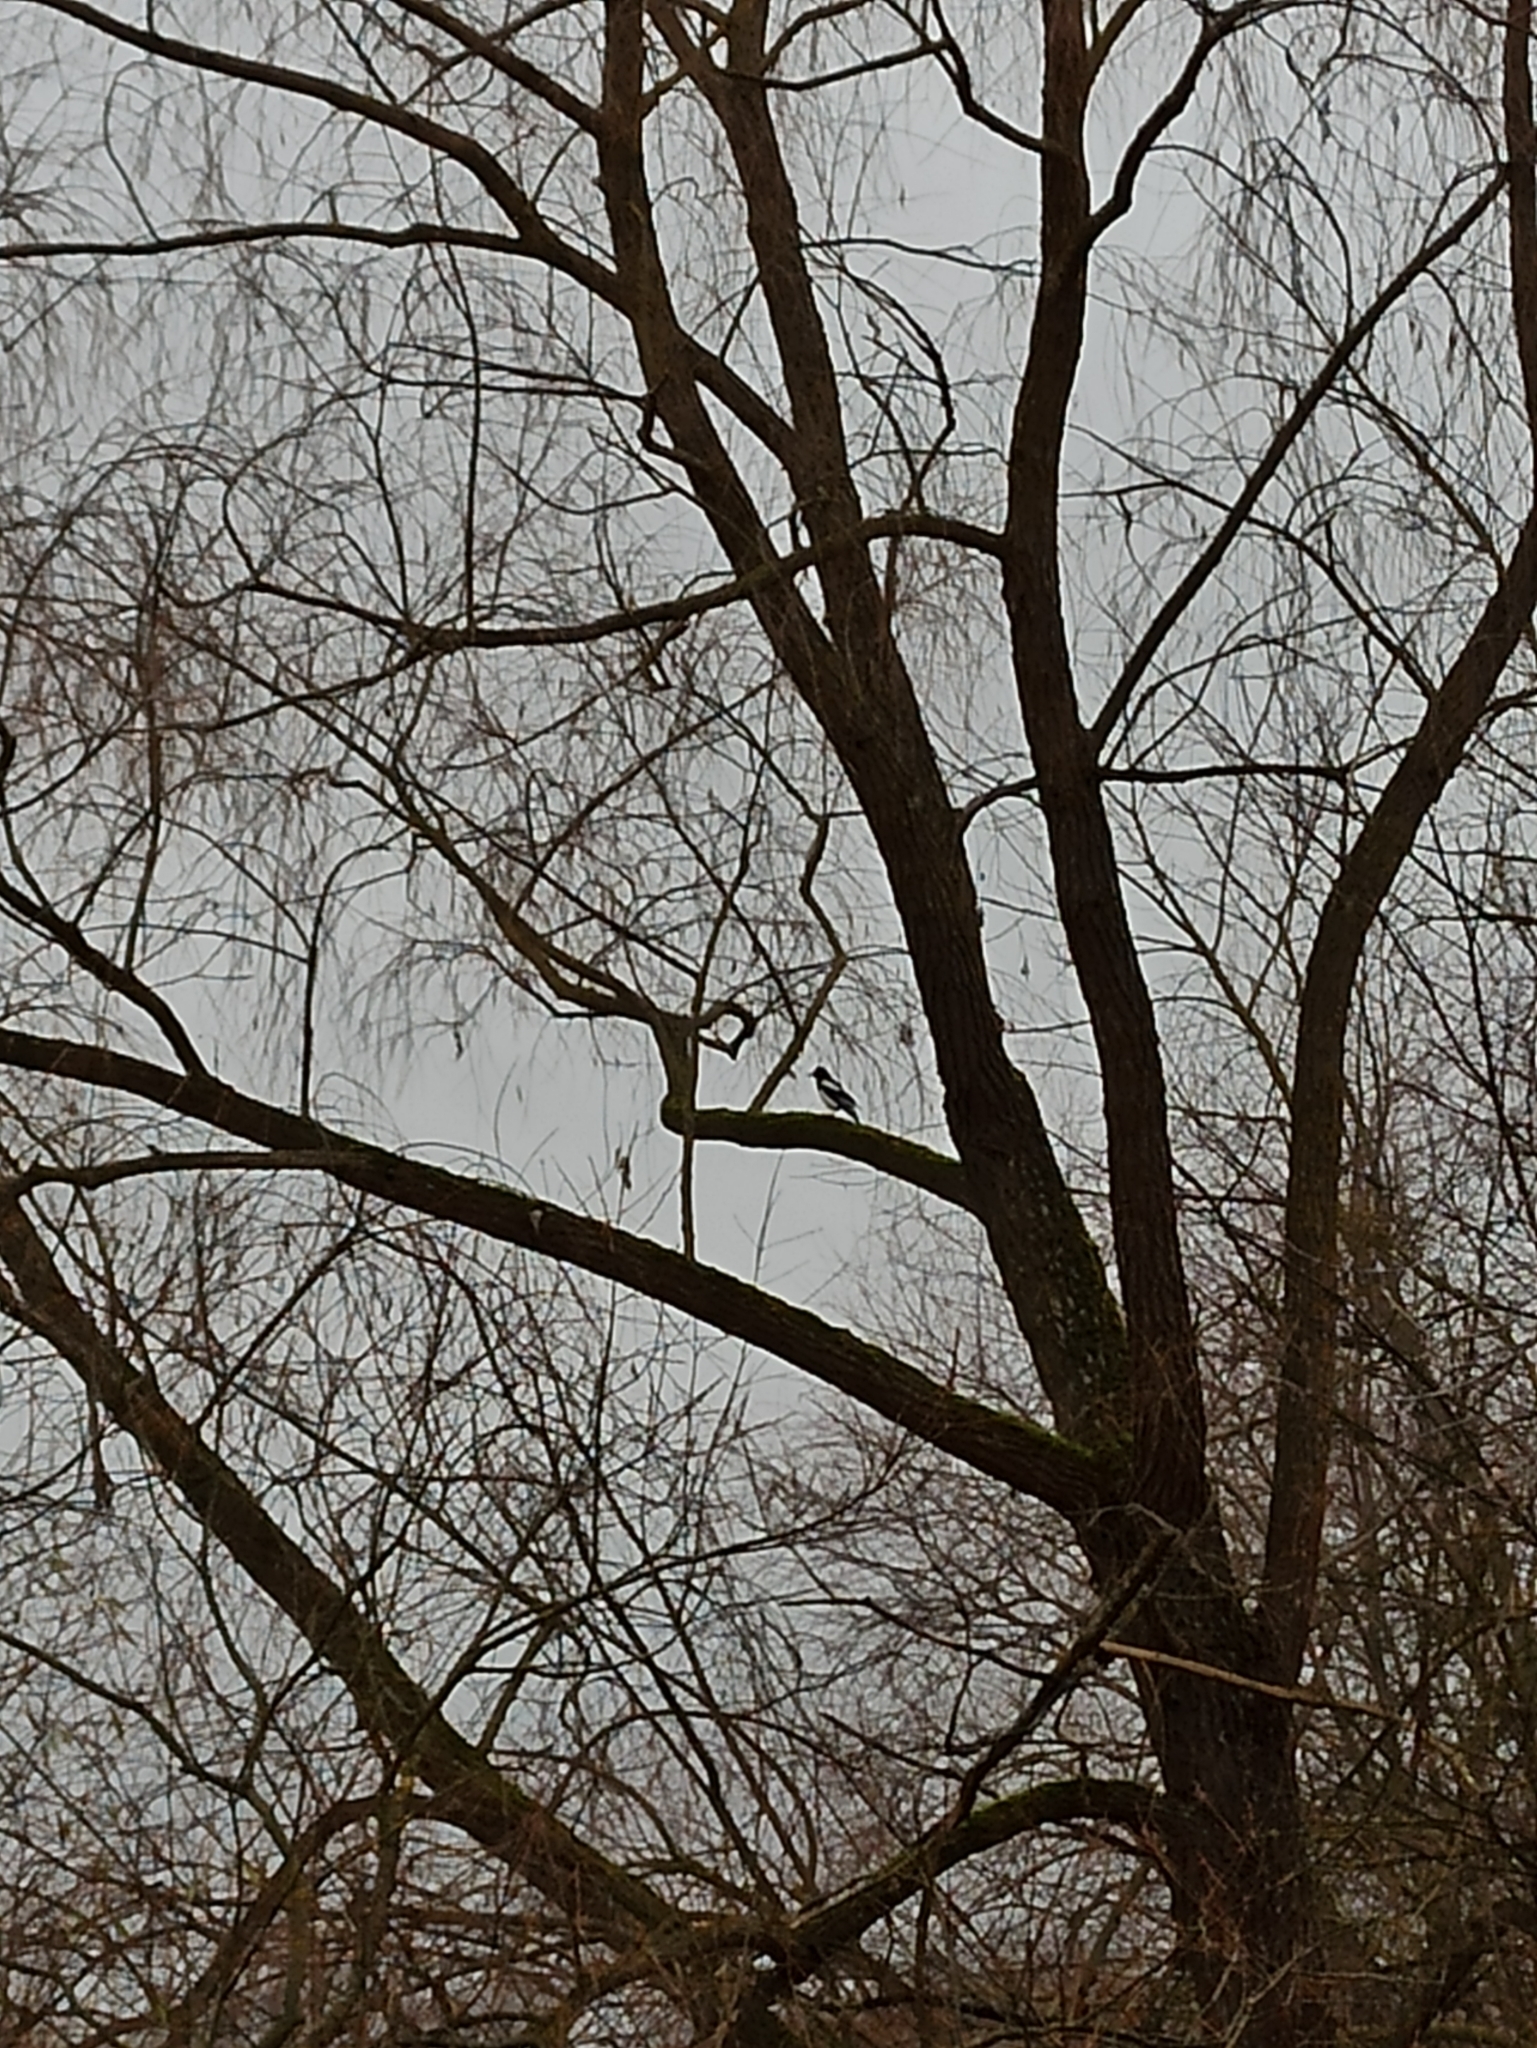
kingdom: Animalia
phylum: Chordata
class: Aves
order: Passeriformes
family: Corvidae
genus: Pica
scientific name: Pica pica
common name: Eurasian magpie
